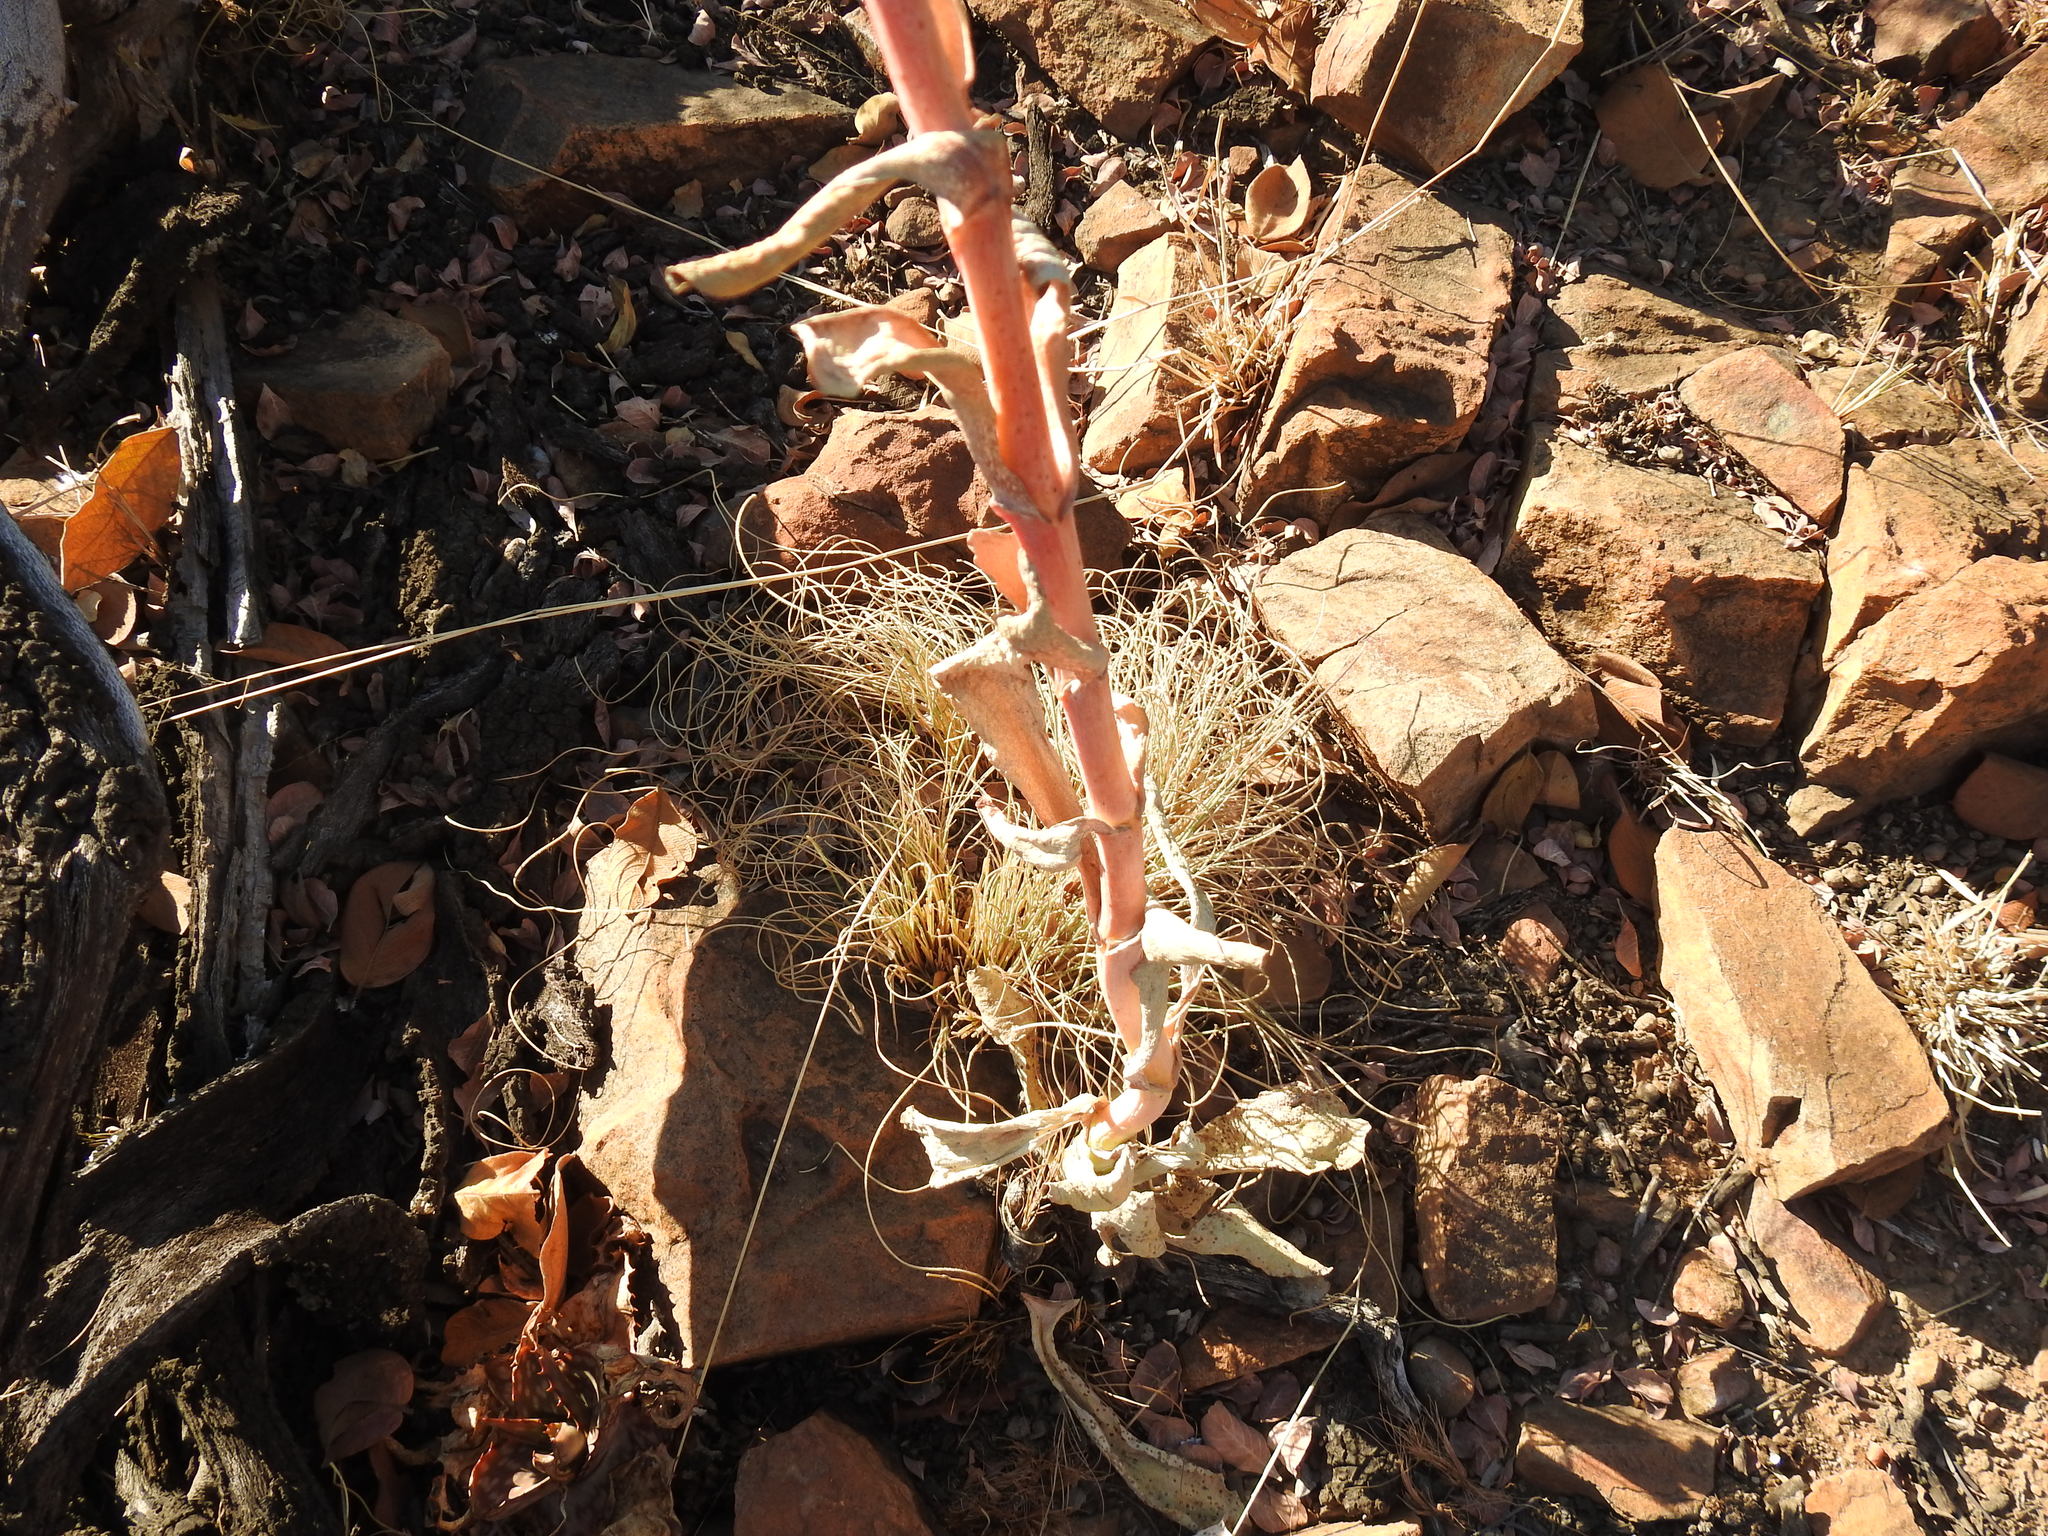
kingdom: Plantae
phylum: Tracheophyta
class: Magnoliopsida
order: Saxifragales
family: Crassulaceae
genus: Kalanchoe
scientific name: Kalanchoe thyrsiflora
